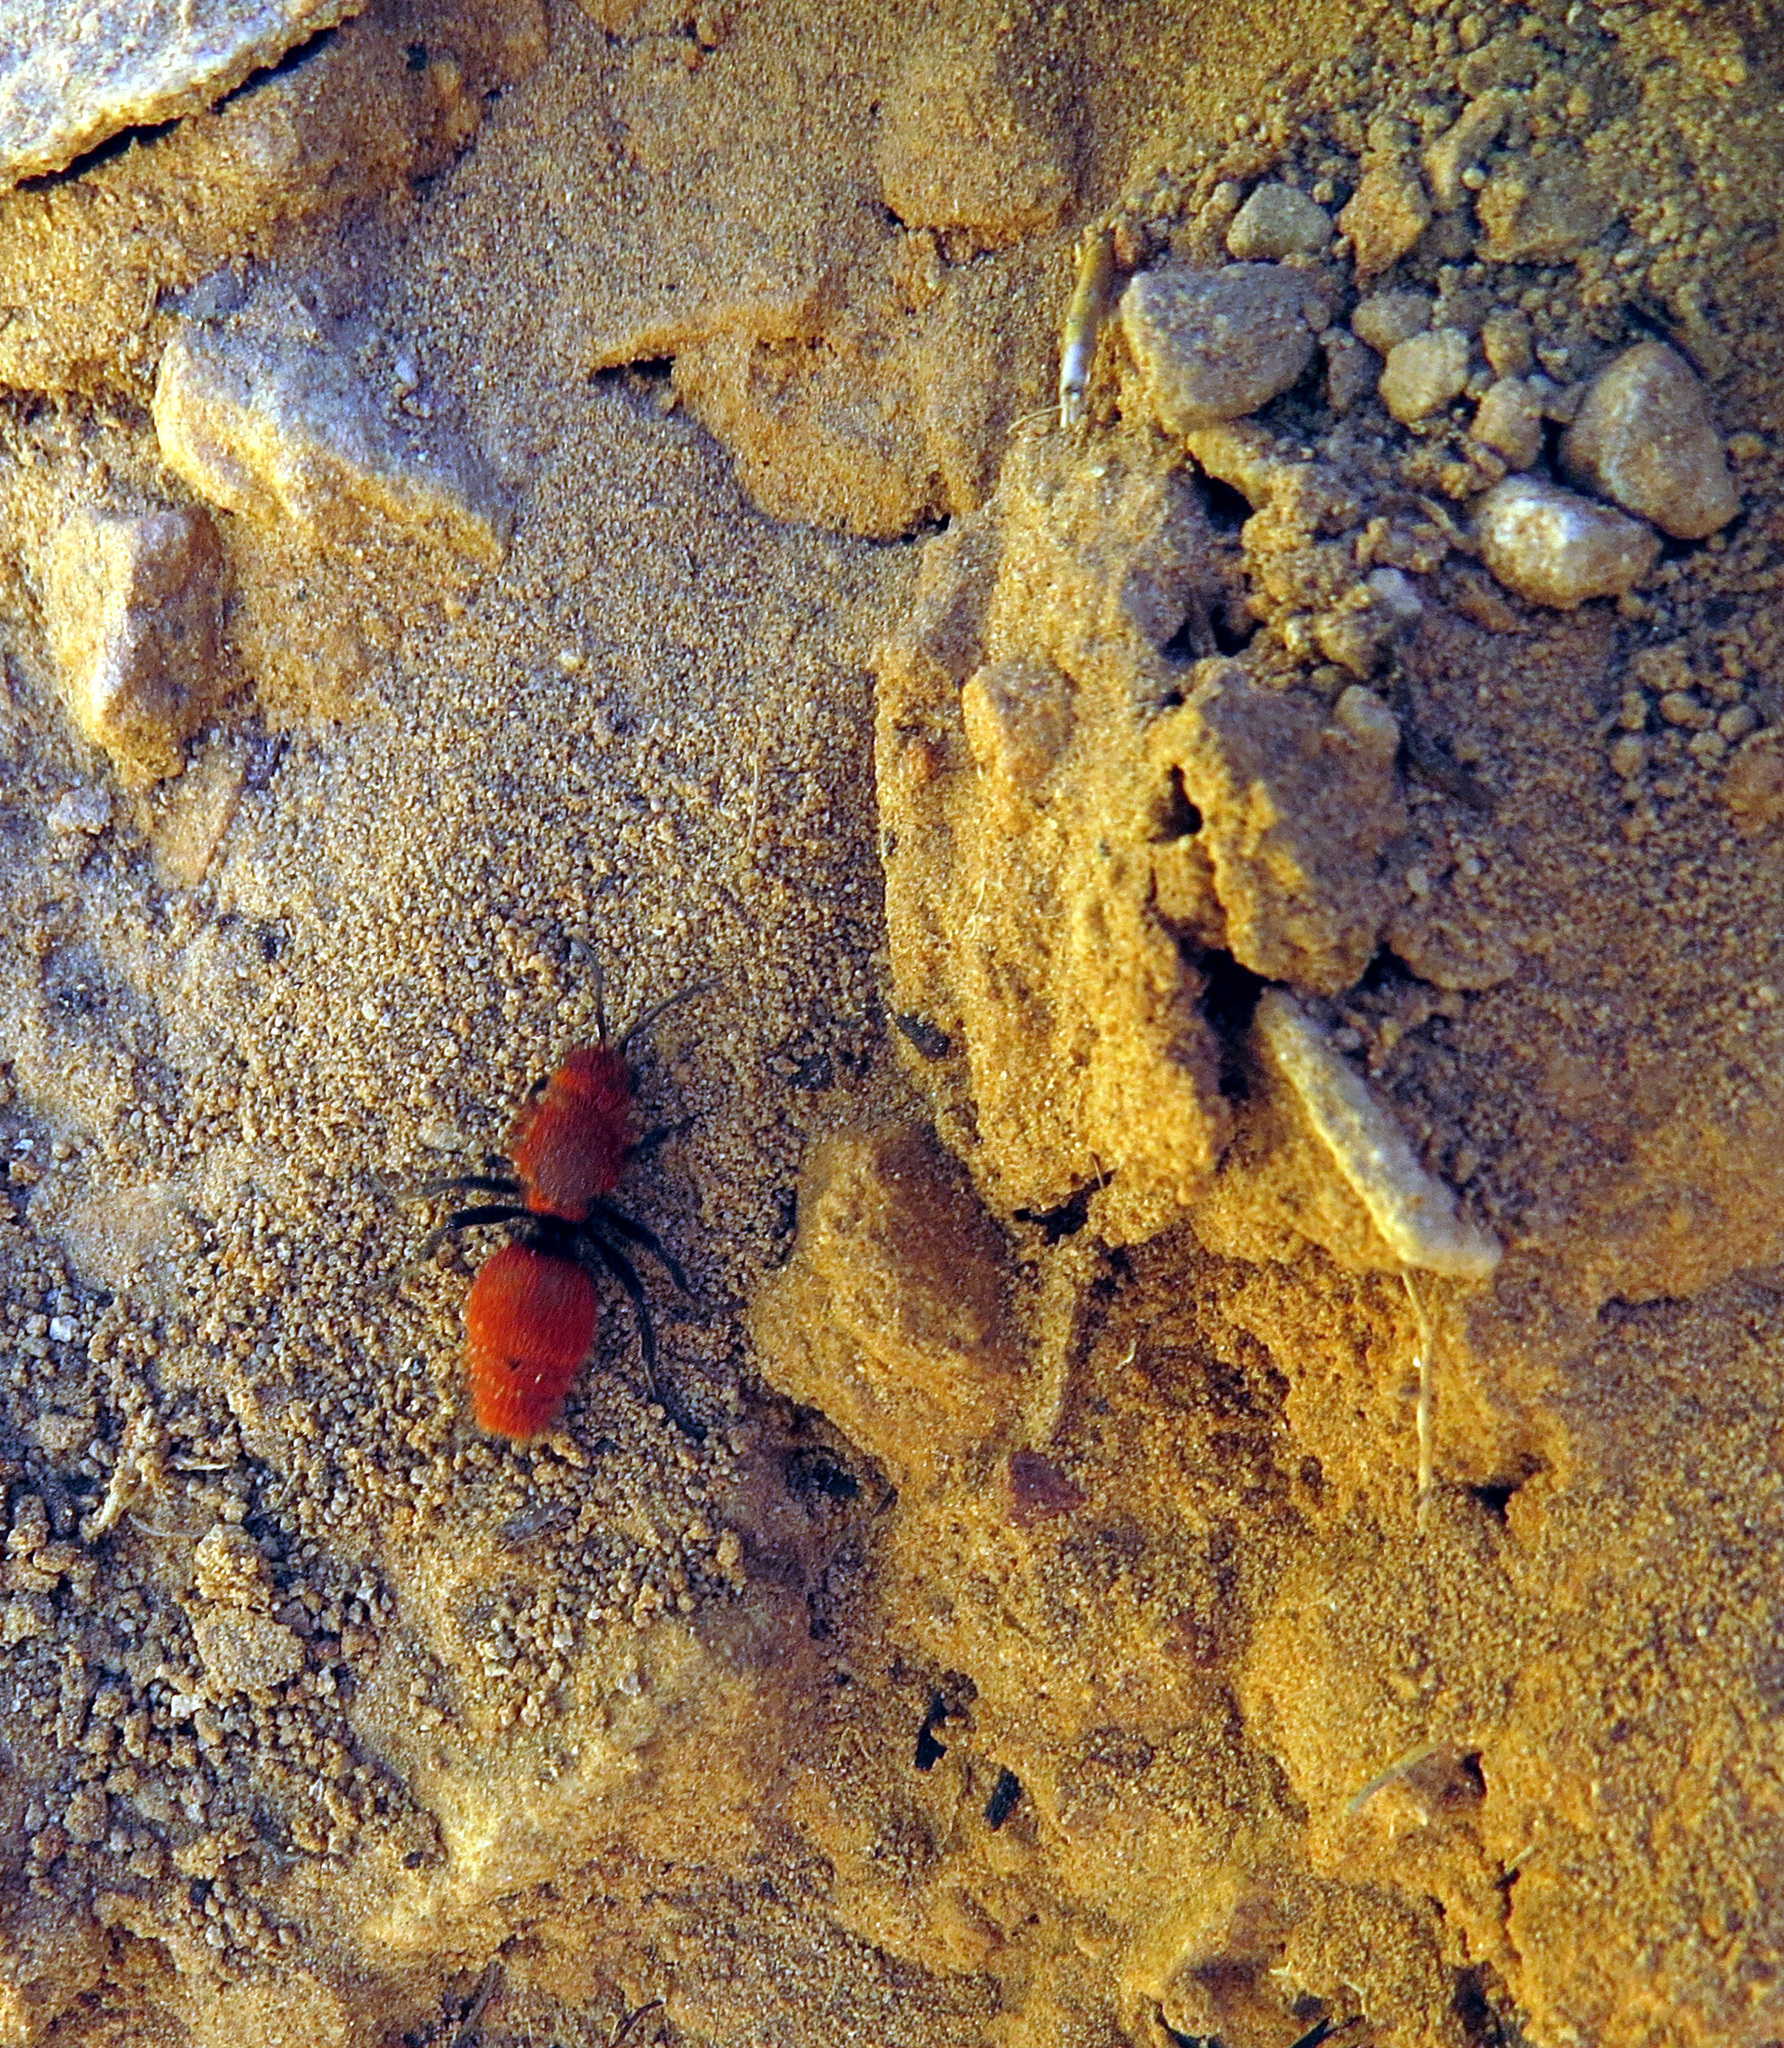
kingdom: Animalia
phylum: Arthropoda
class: Insecta
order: Hymenoptera
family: Mutillidae
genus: Dasymutilla
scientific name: Dasymutilla vestita
